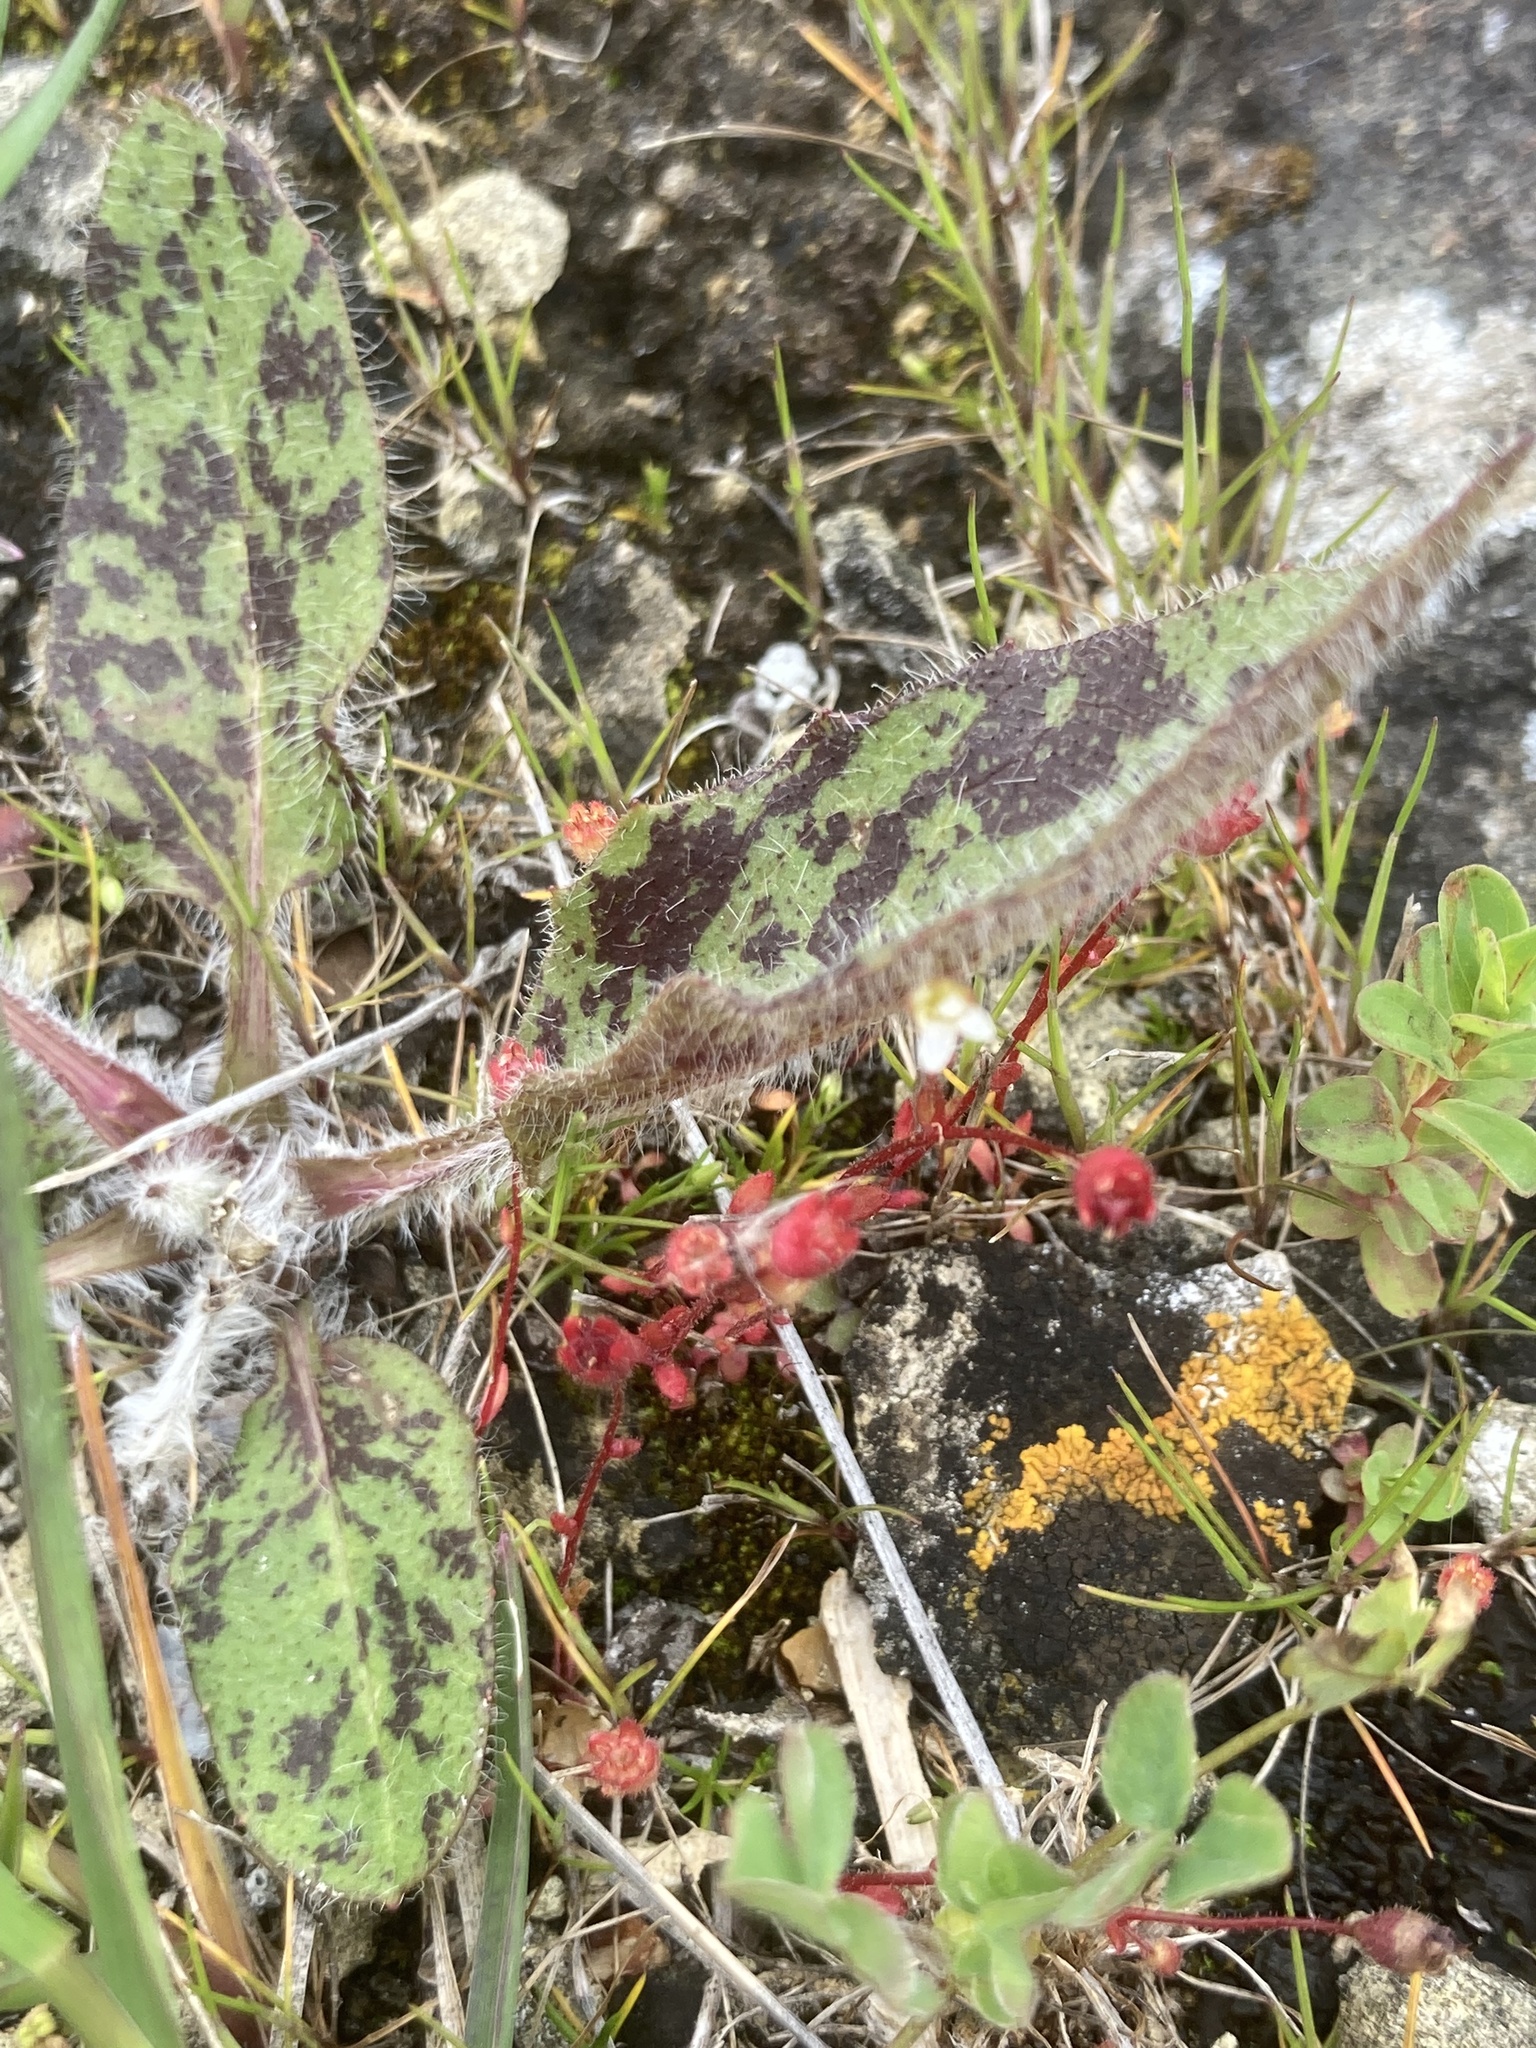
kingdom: Plantae
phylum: Tracheophyta
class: Magnoliopsida
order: Saxifragales
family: Saxifragaceae
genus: Saxifraga
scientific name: Saxifraga tridactylites
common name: Rue-leaved saxifrage
